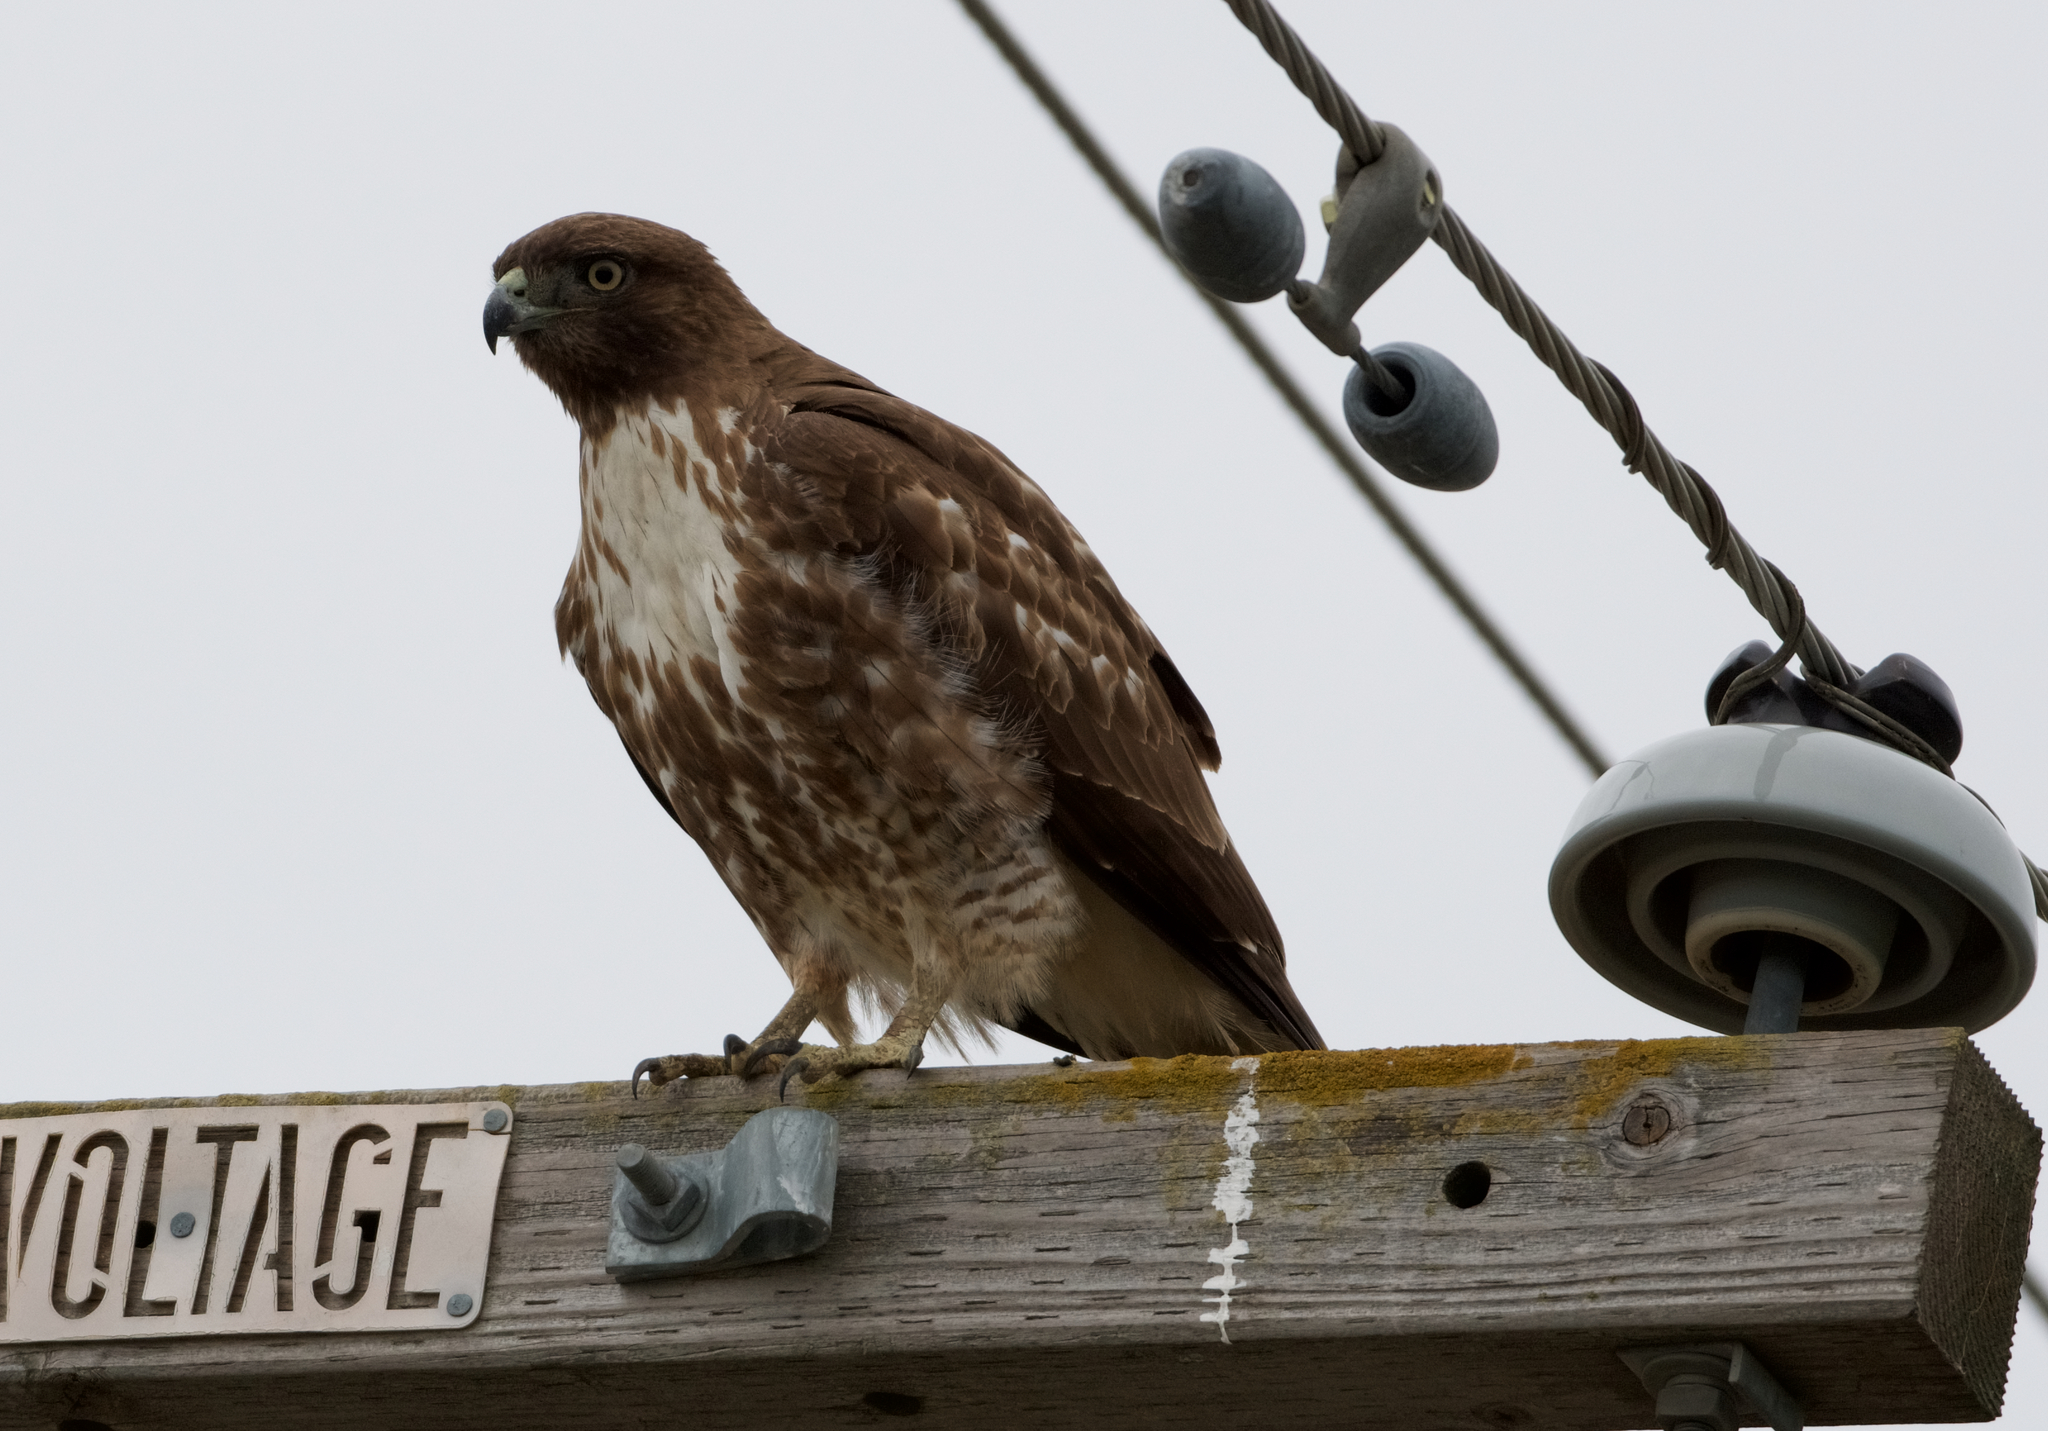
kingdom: Animalia
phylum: Chordata
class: Aves
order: Accipitriformes
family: Accipitridae
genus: Buteo
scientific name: Buteo jamaicensis
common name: Red-tailed hawk
